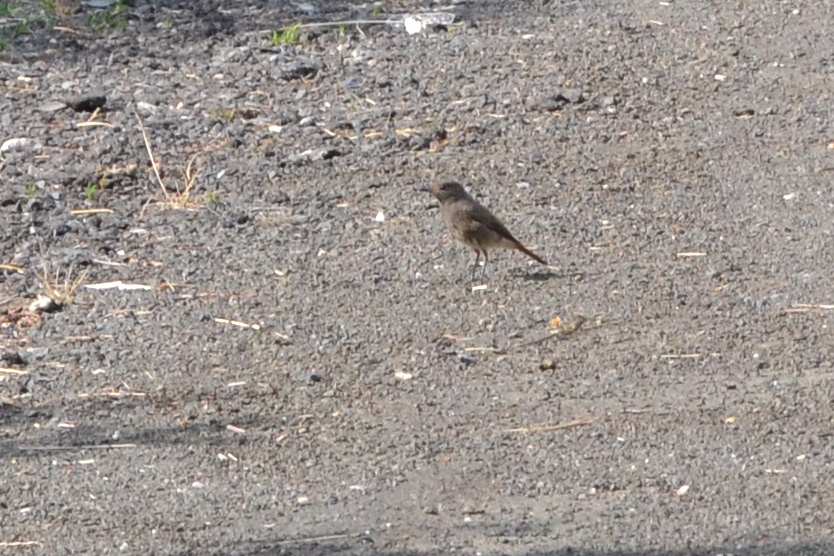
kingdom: Animalia
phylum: Chordata
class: Aves
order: Passeriformes
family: Muscicapidae
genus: Phoenicurus
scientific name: Phoenicurus ochruros
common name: Black redstart
